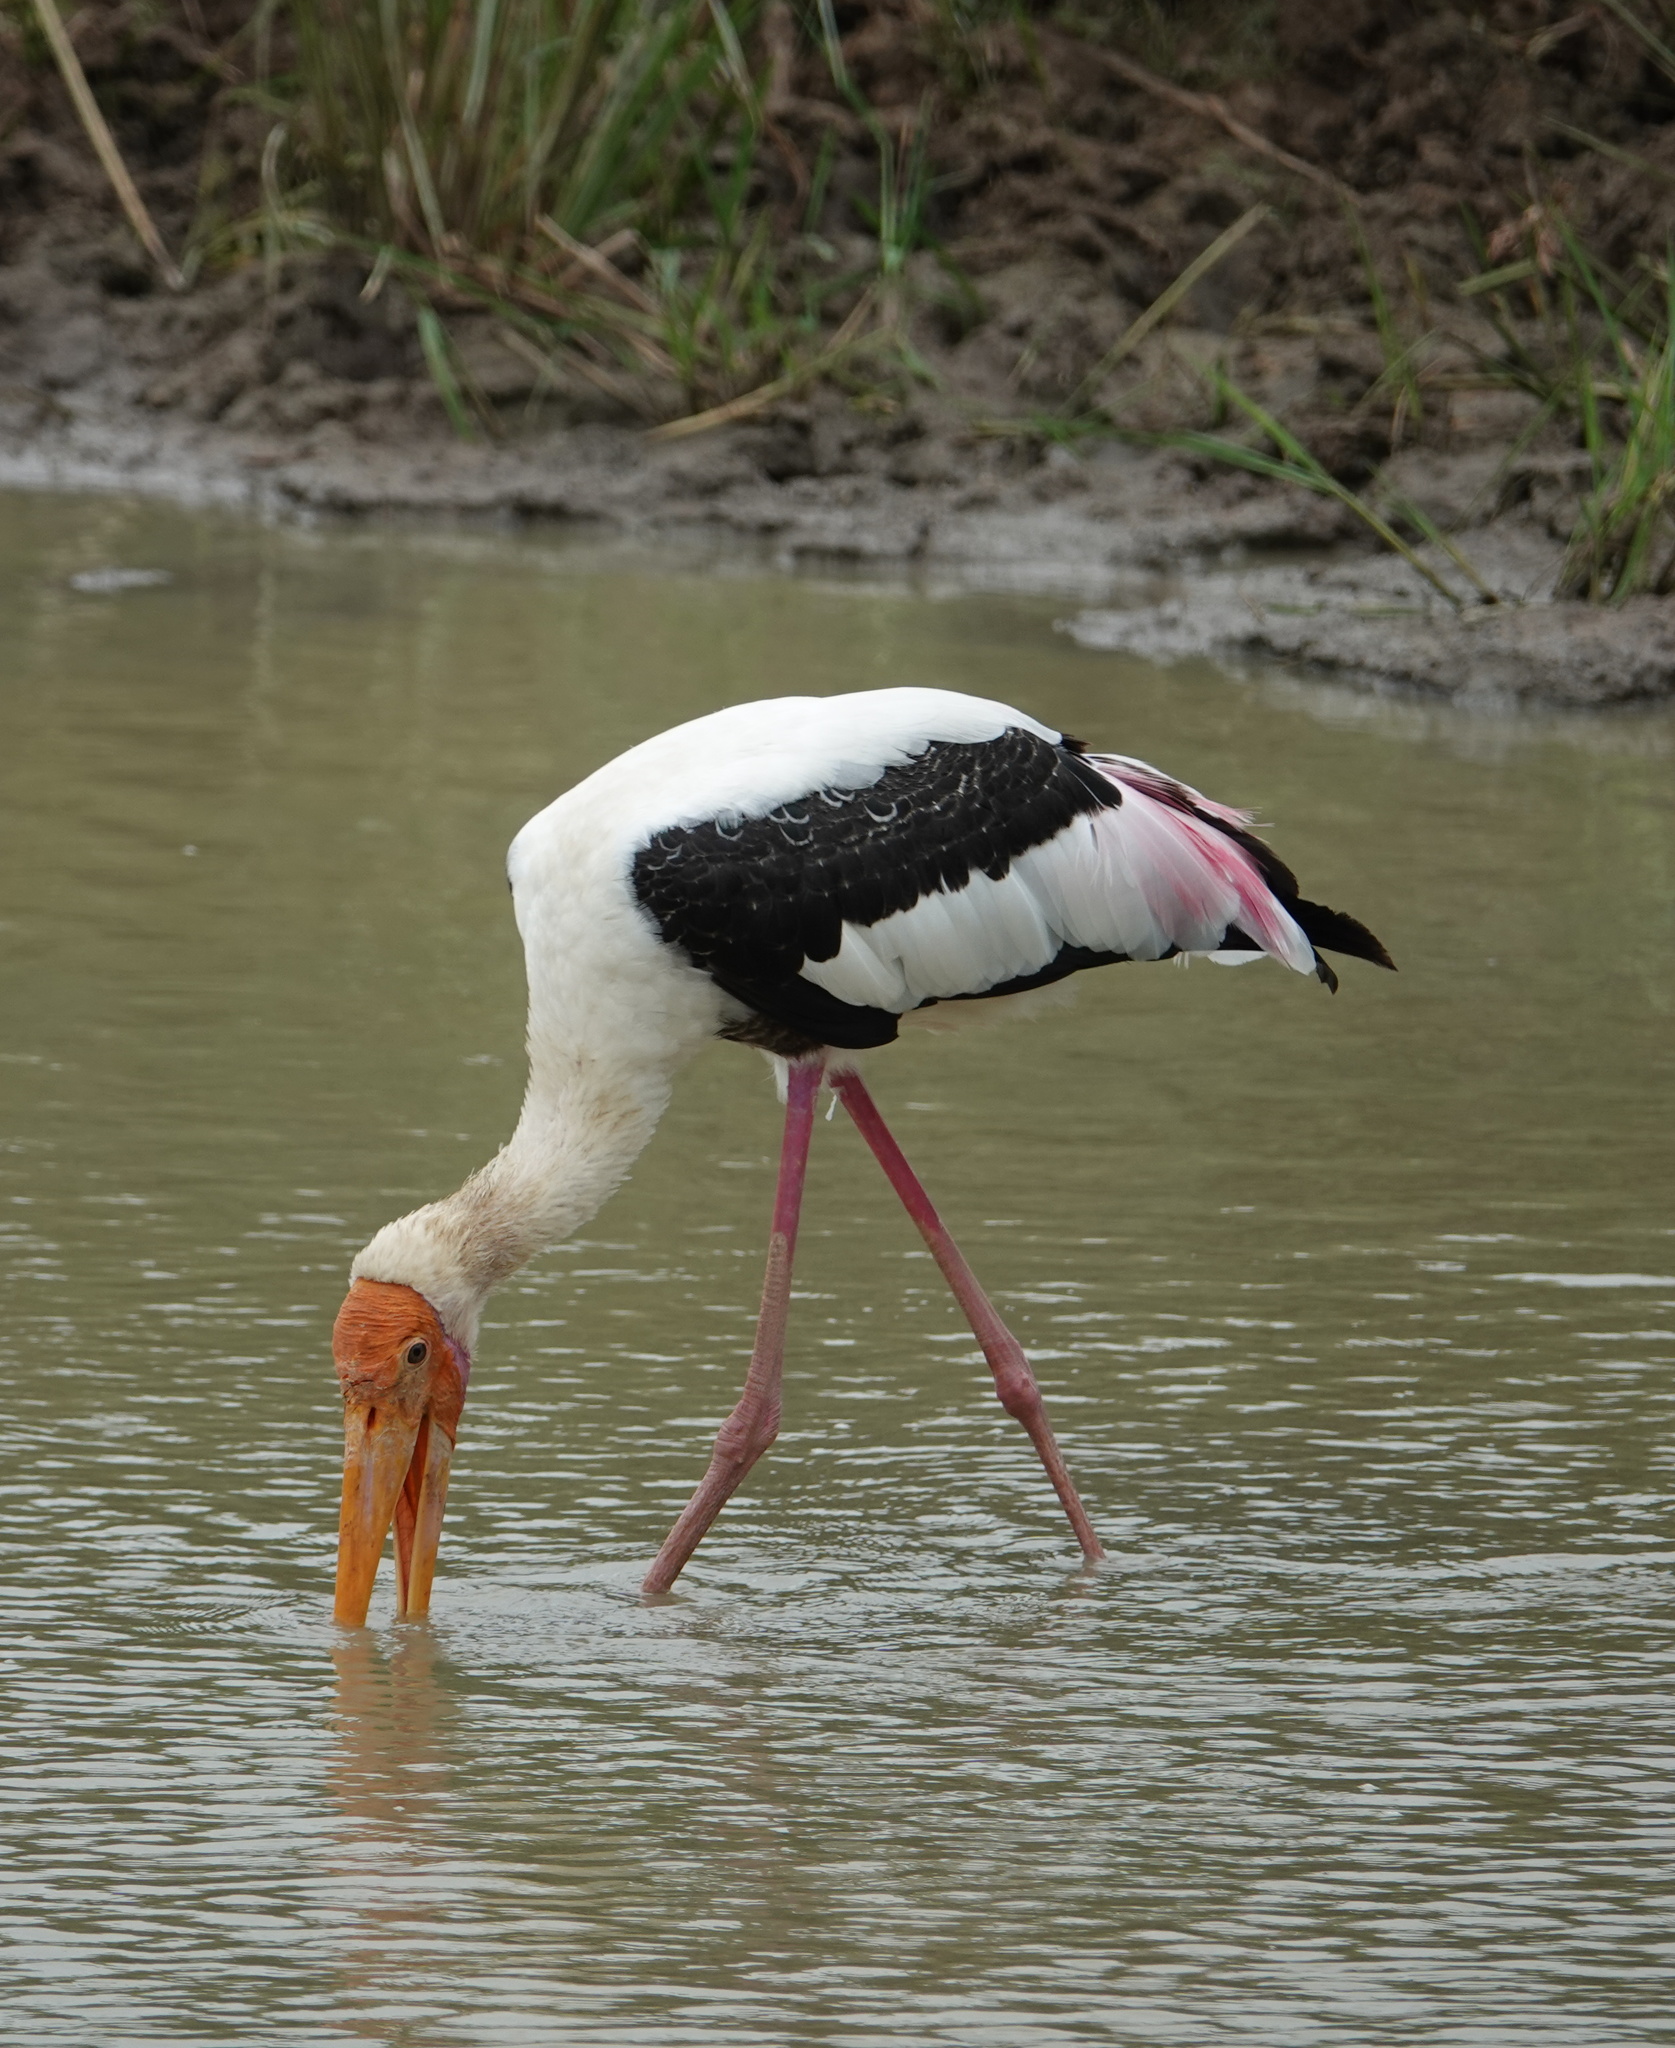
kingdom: Animalia
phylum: Chordata
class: Aves
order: Ciconiiformes
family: Ciconiidae
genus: Mycteria
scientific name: Mycteria leucocephala
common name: Painted stork
